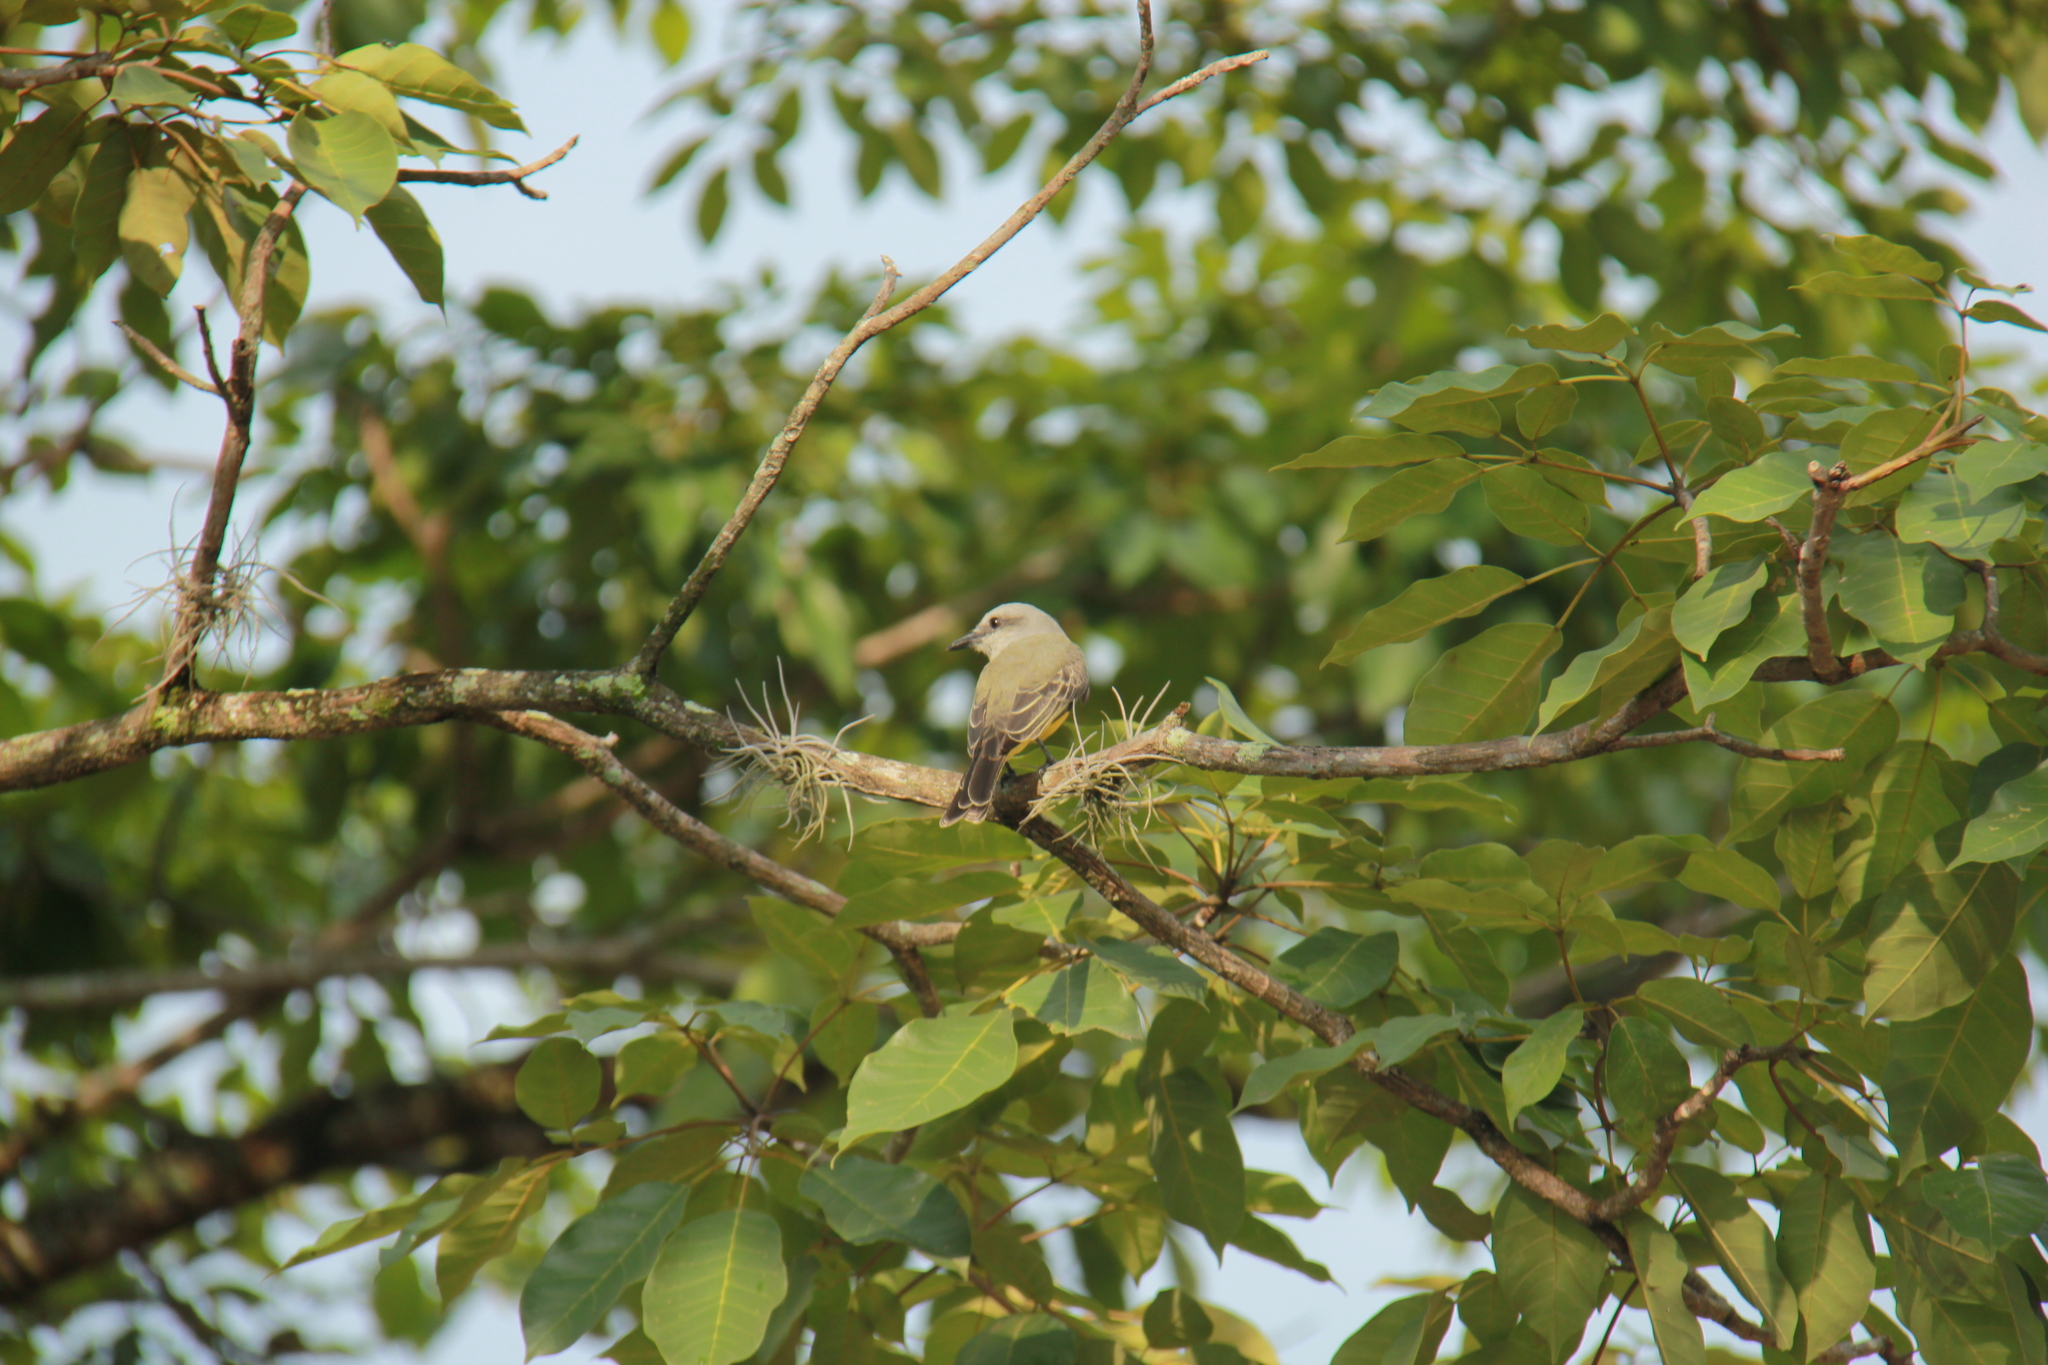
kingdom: Animalia
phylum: Chordata
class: Aves
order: Passeriformes
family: Tyrannidae
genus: Tyrannus
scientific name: Tyrannus melancholicus
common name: Tropical kingbird
